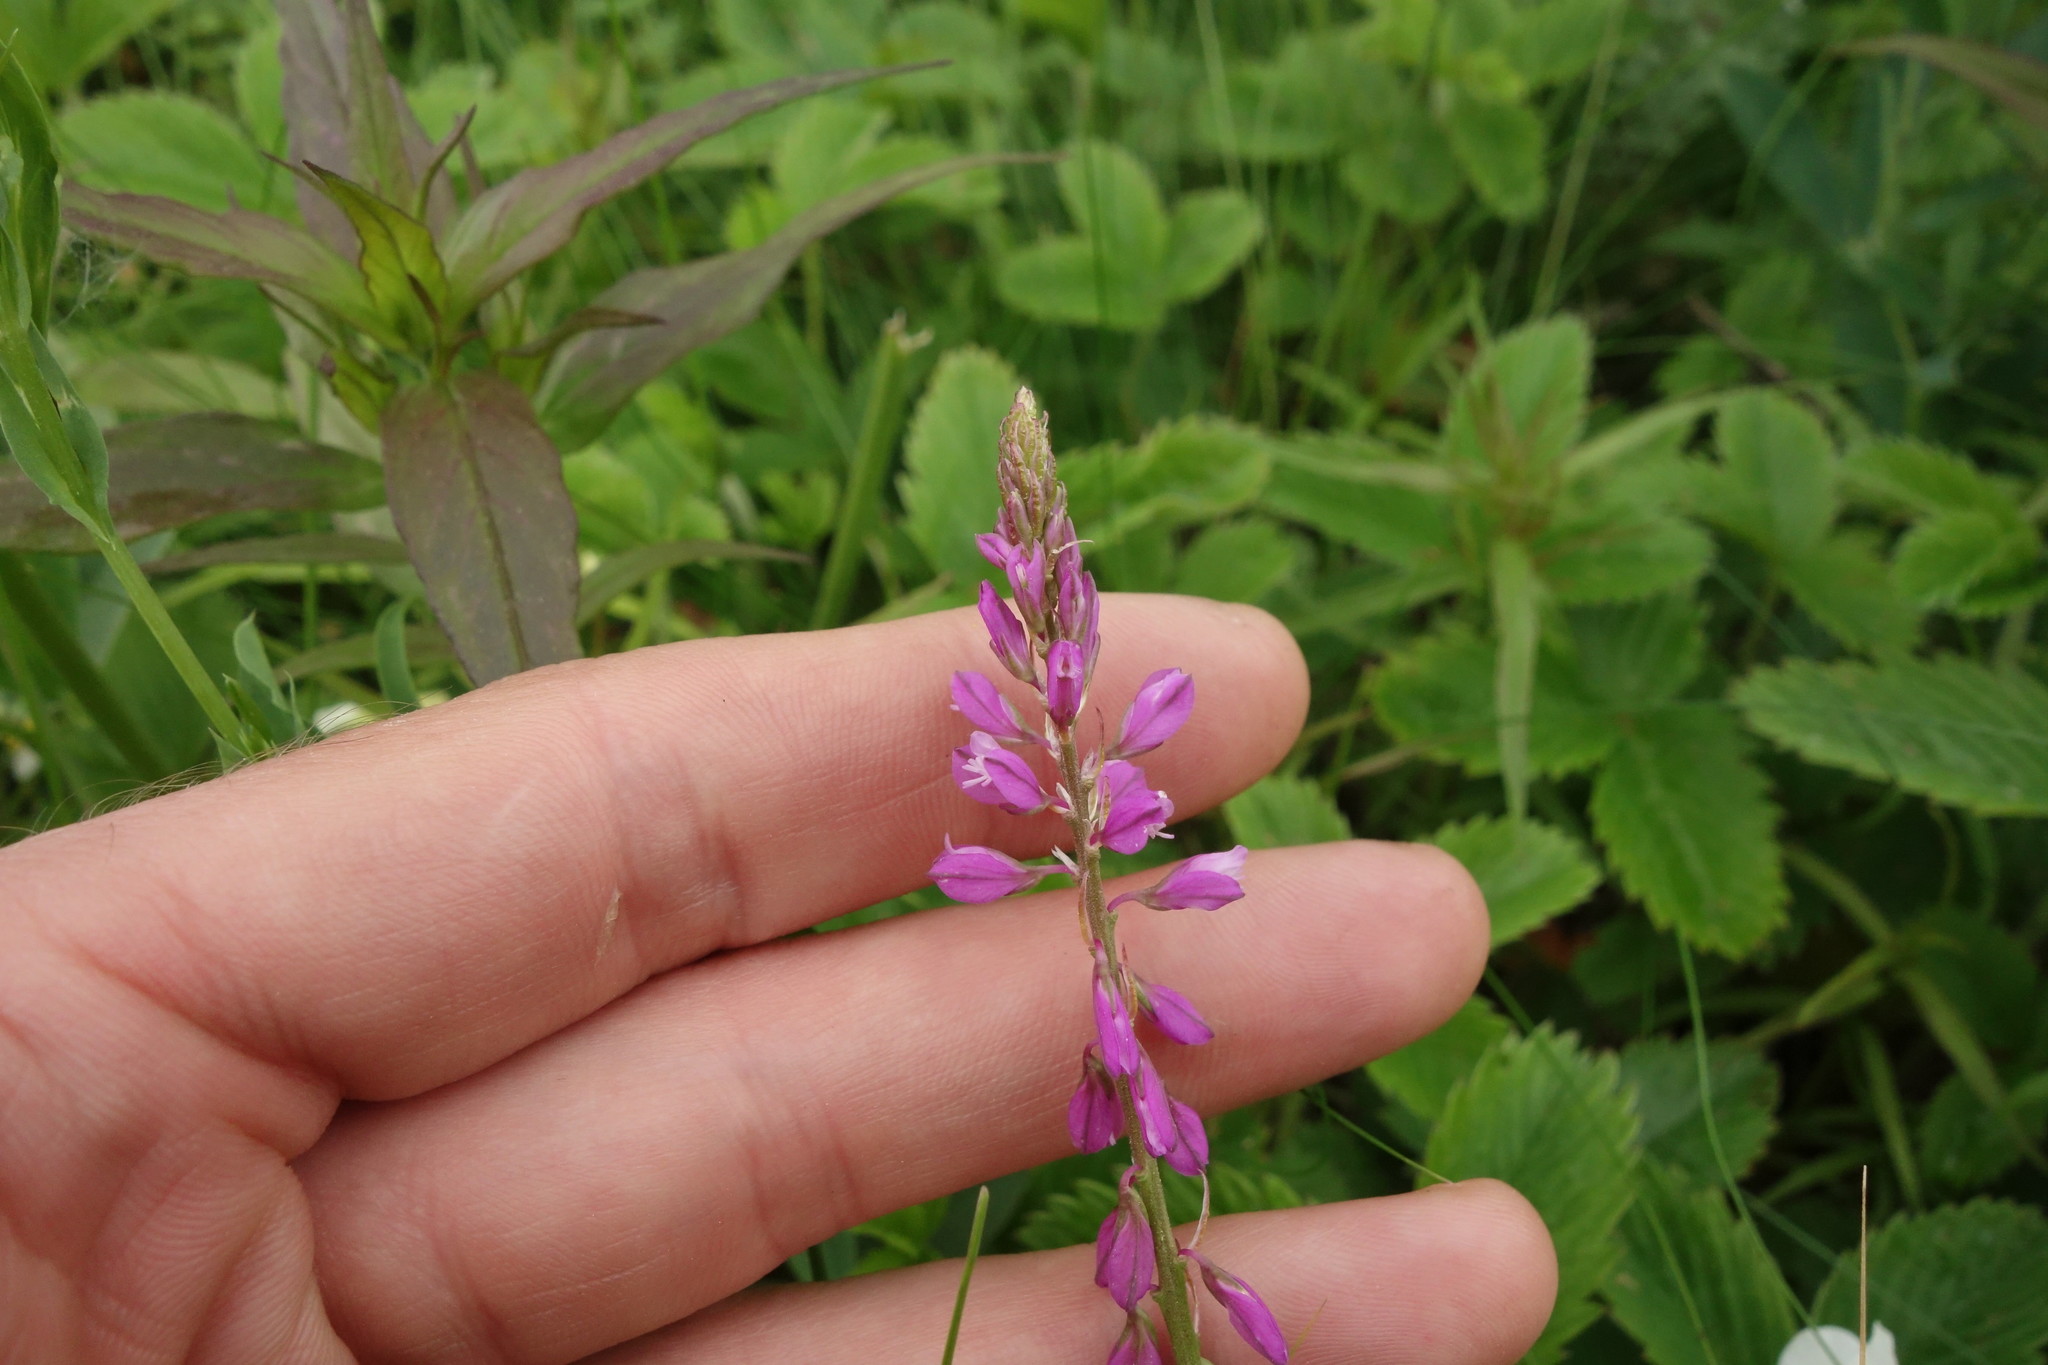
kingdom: Plantae
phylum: Tracheophyta
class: Magnoliopsida
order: Fabales
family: Polygalaceae
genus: Polygala
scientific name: Polygala comosa
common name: Tufted milkwort
